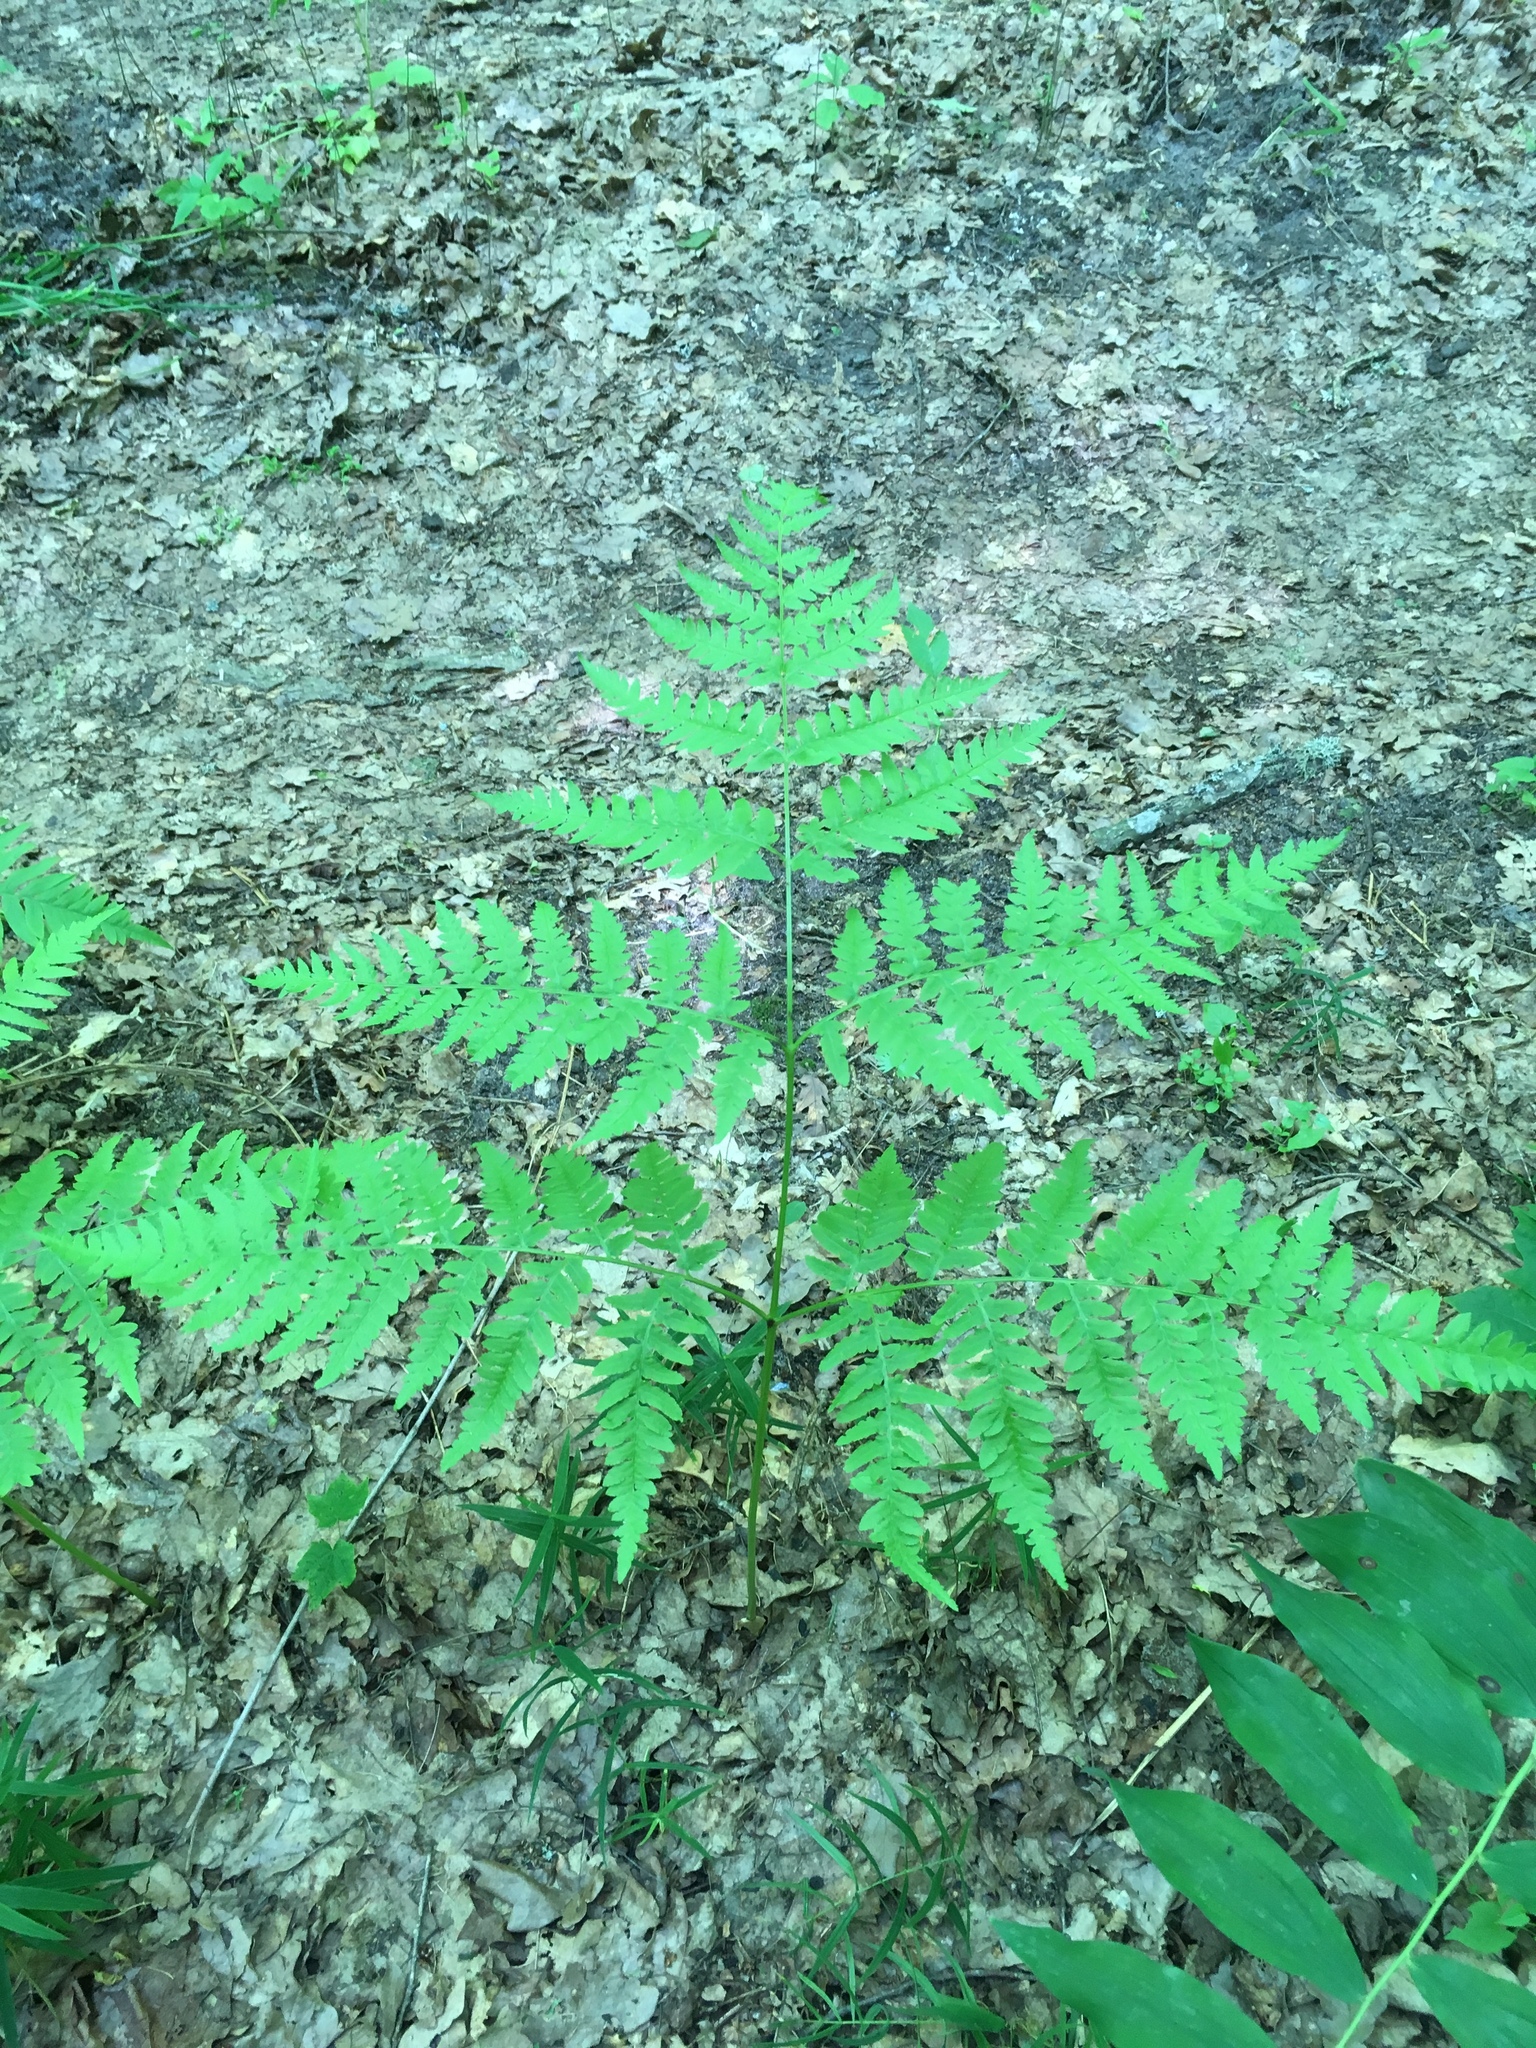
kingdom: Plantae
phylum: Tracheophyta
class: Polypodiopsida
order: Polypodiales
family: Dennstaedtiaceae
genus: Pteridium
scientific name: Pteridium aquilinum
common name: Bracken
